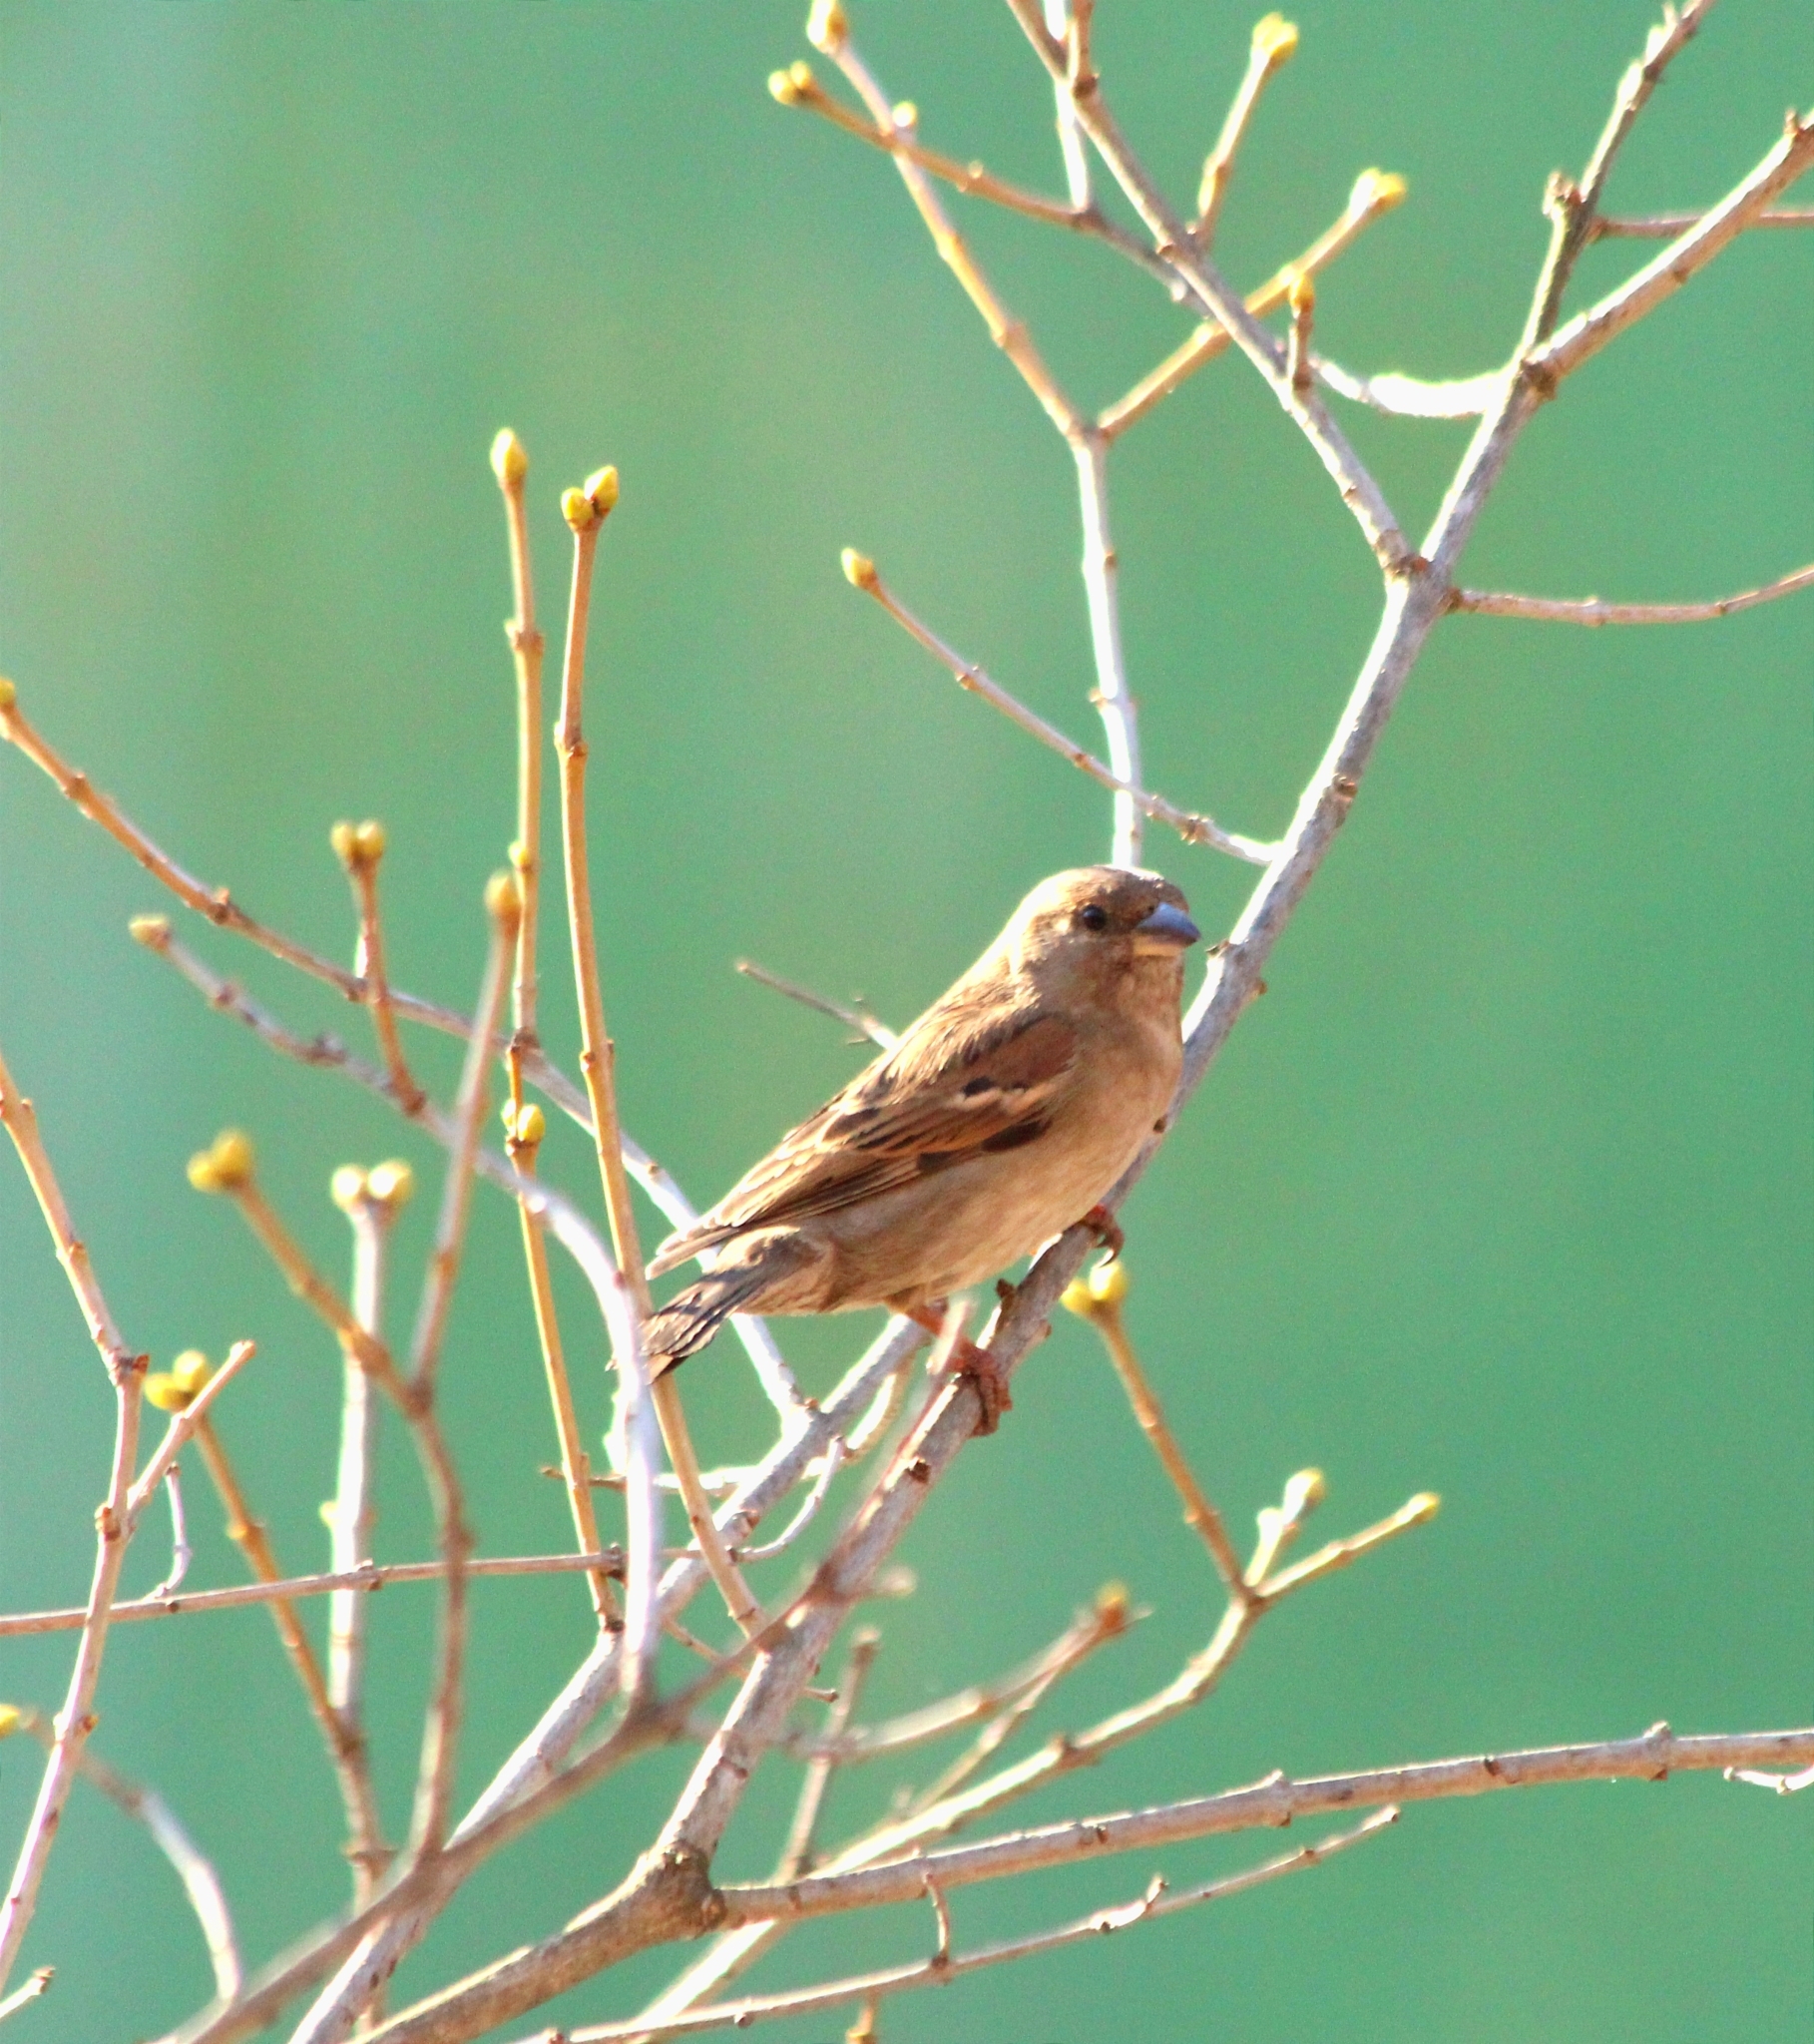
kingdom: Animalia
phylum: Chordata
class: Aves
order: Passeriformes
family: Passeridae
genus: Passer
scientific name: Passer domesticus
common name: House sparrow
